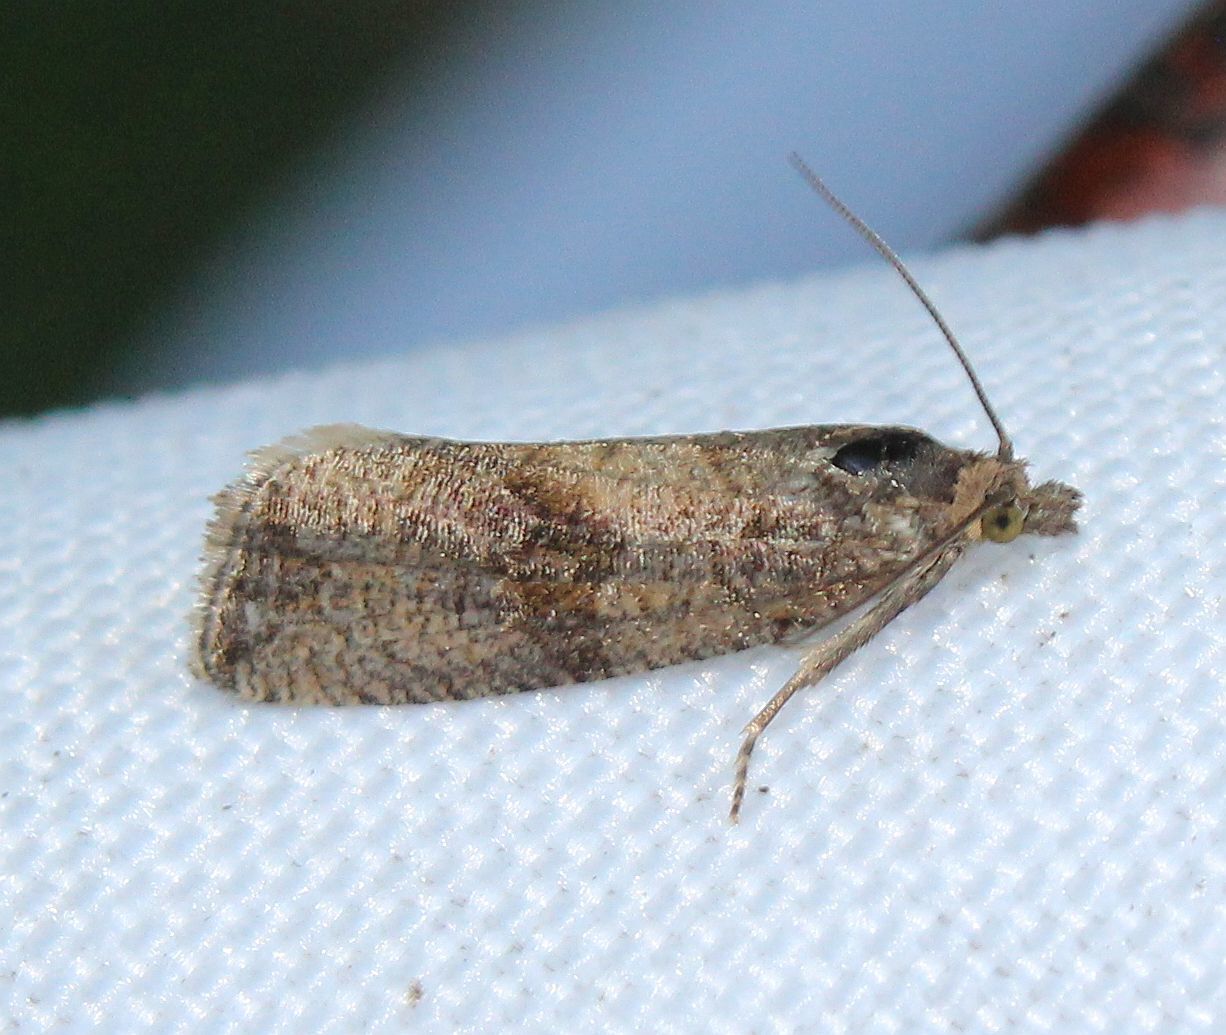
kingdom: Animalia
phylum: Arthropoda
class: Insecta
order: Lepidoptera
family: Tortricidae
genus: Celypha
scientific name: Celypha striana
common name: Barred marble
